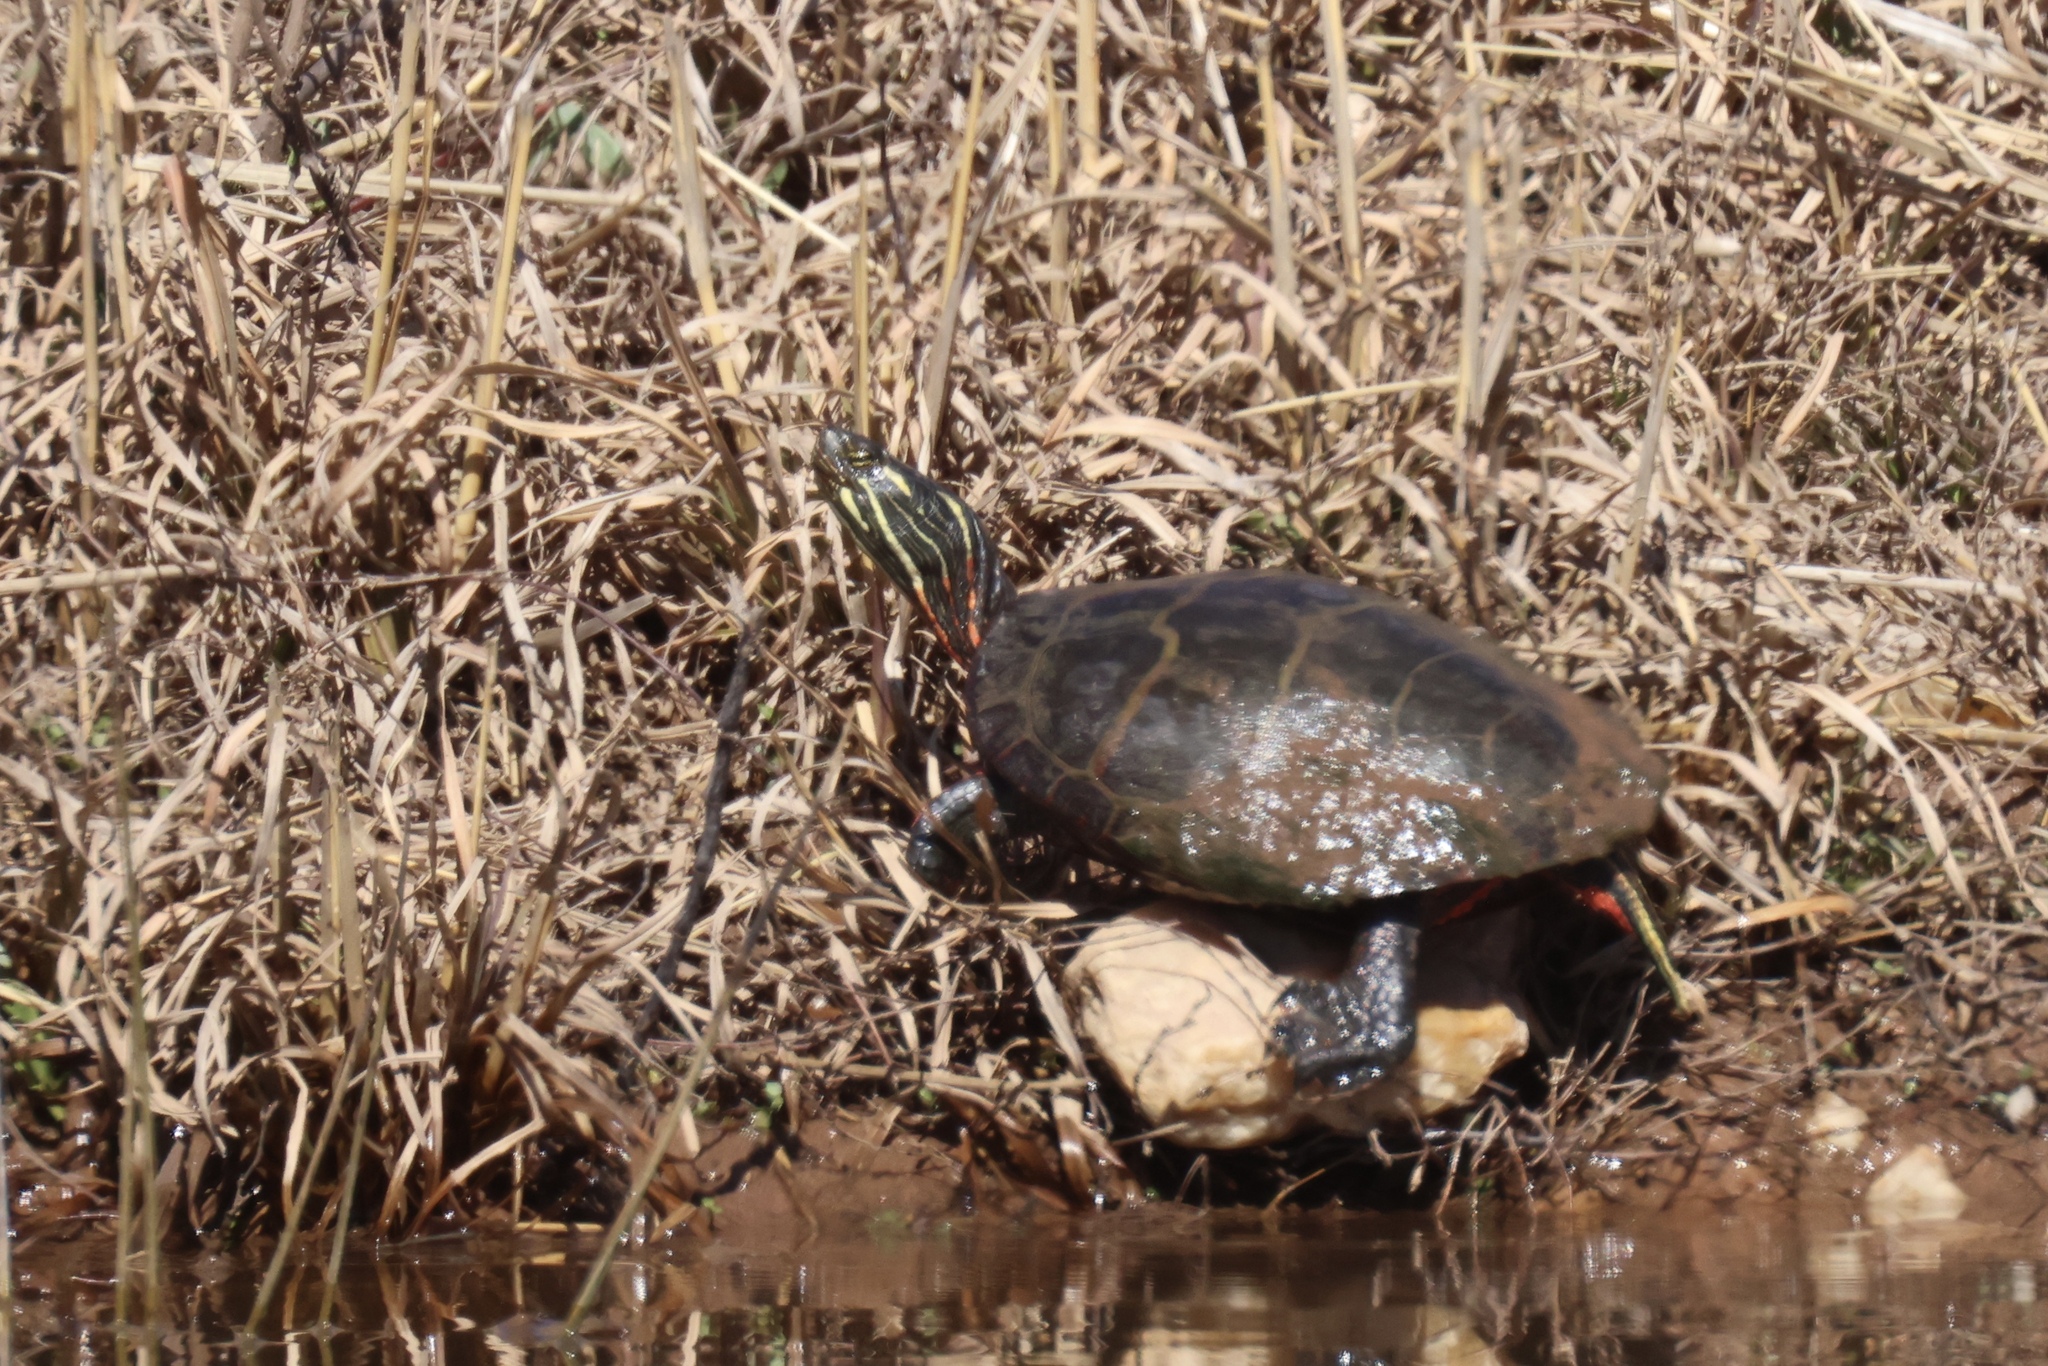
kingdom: Animalia
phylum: Chordata
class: Testudines
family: Emydidae
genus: Chrysemys
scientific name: Chrysemys picta
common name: Painted turtle
